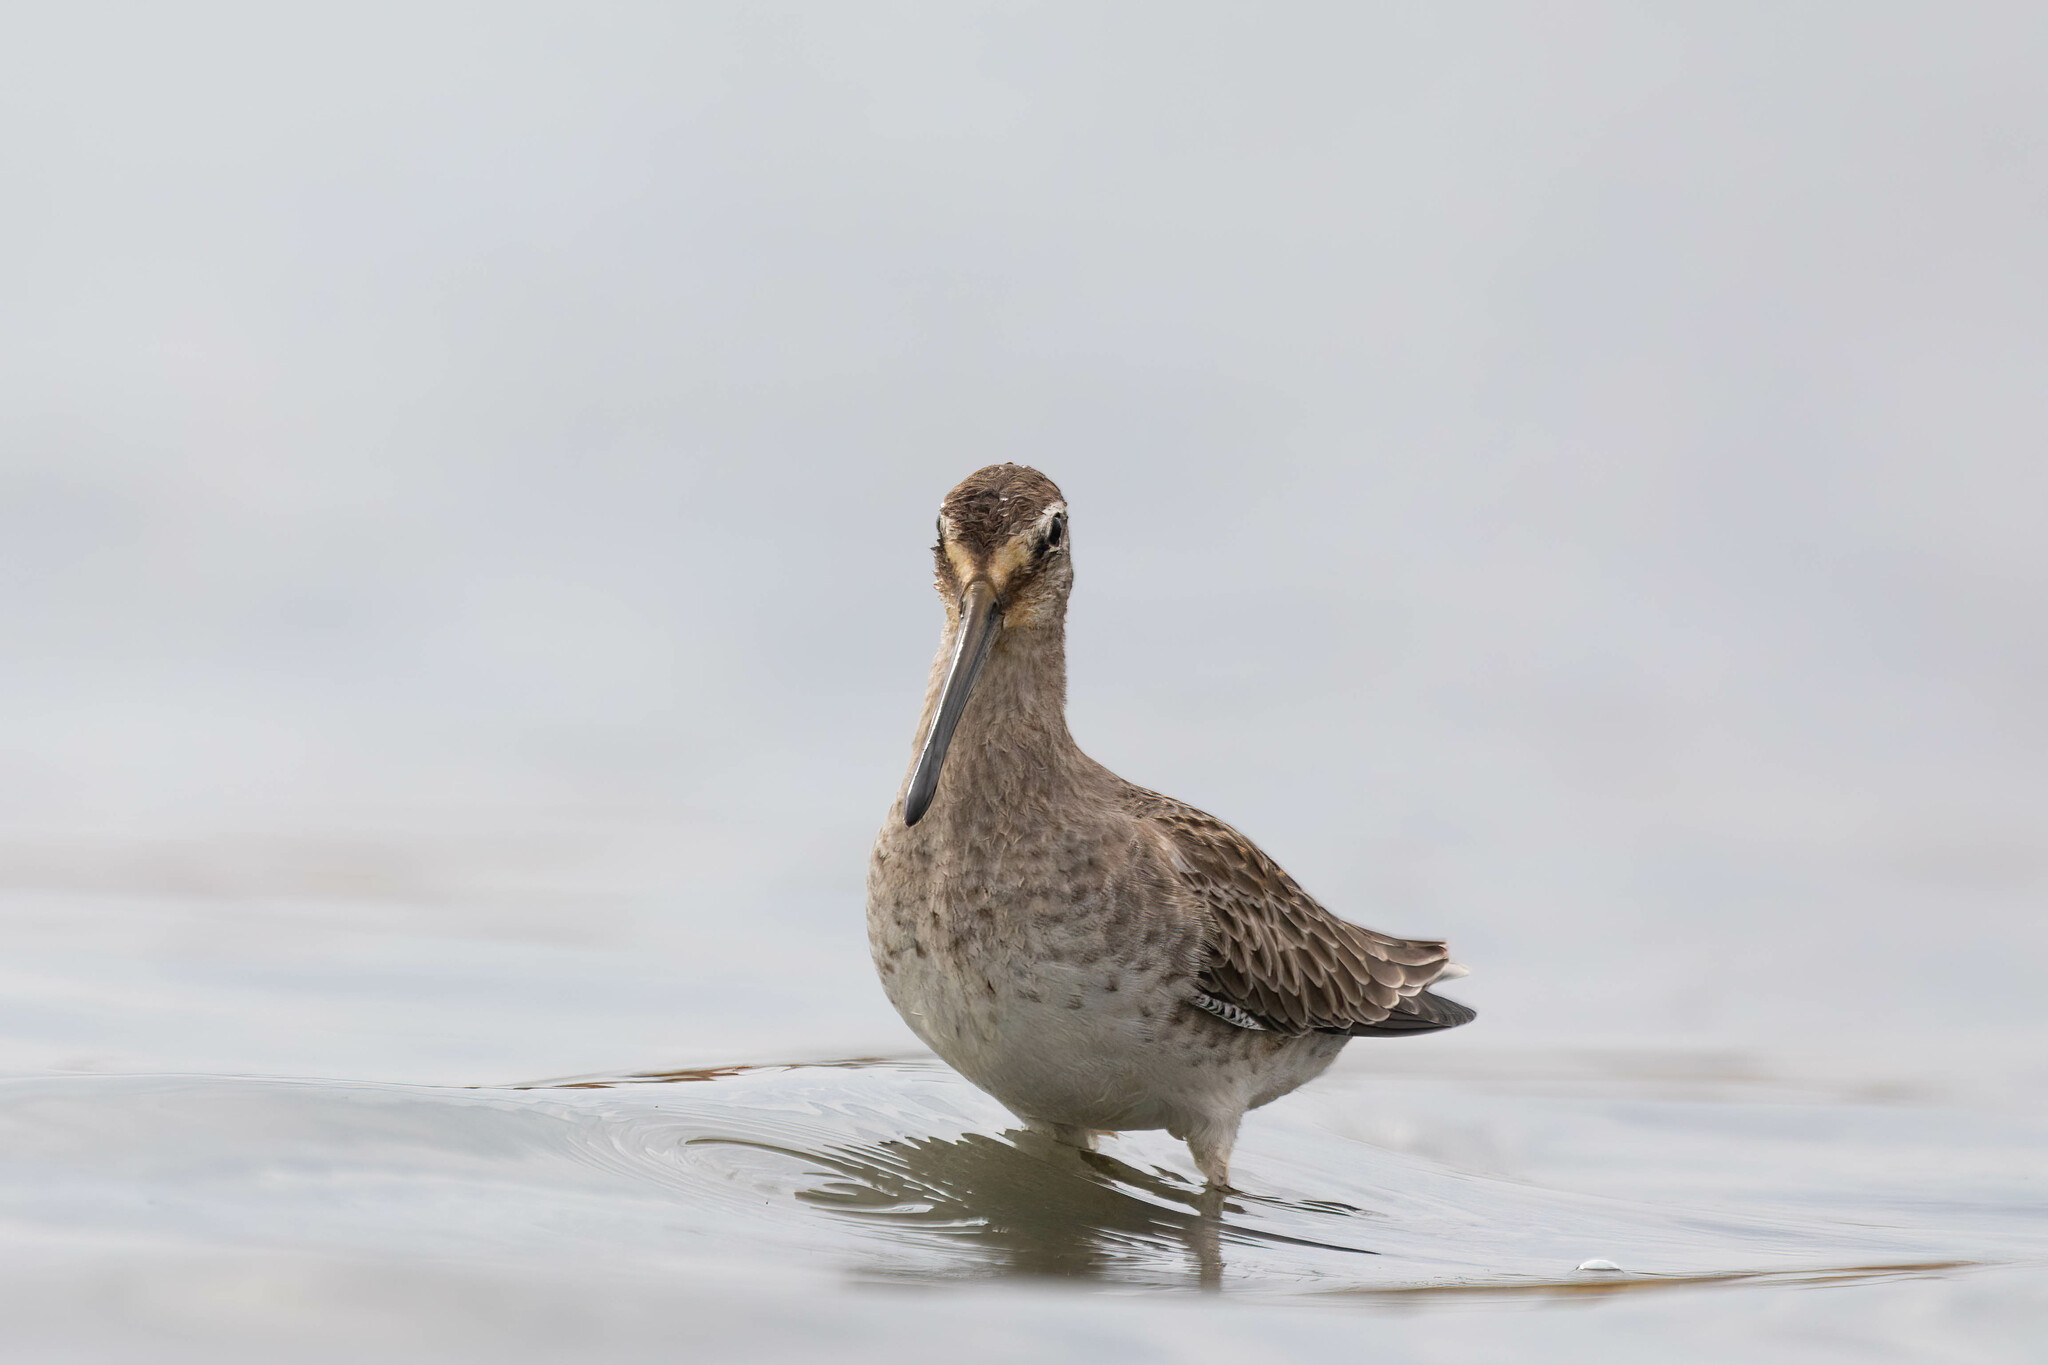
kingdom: Animalia
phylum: Chordata
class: Aves
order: Charadriiformes
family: Scolopacidae
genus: Limnodromus
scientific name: Limnodromus scolopaceus
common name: Long-billed dowitcher
